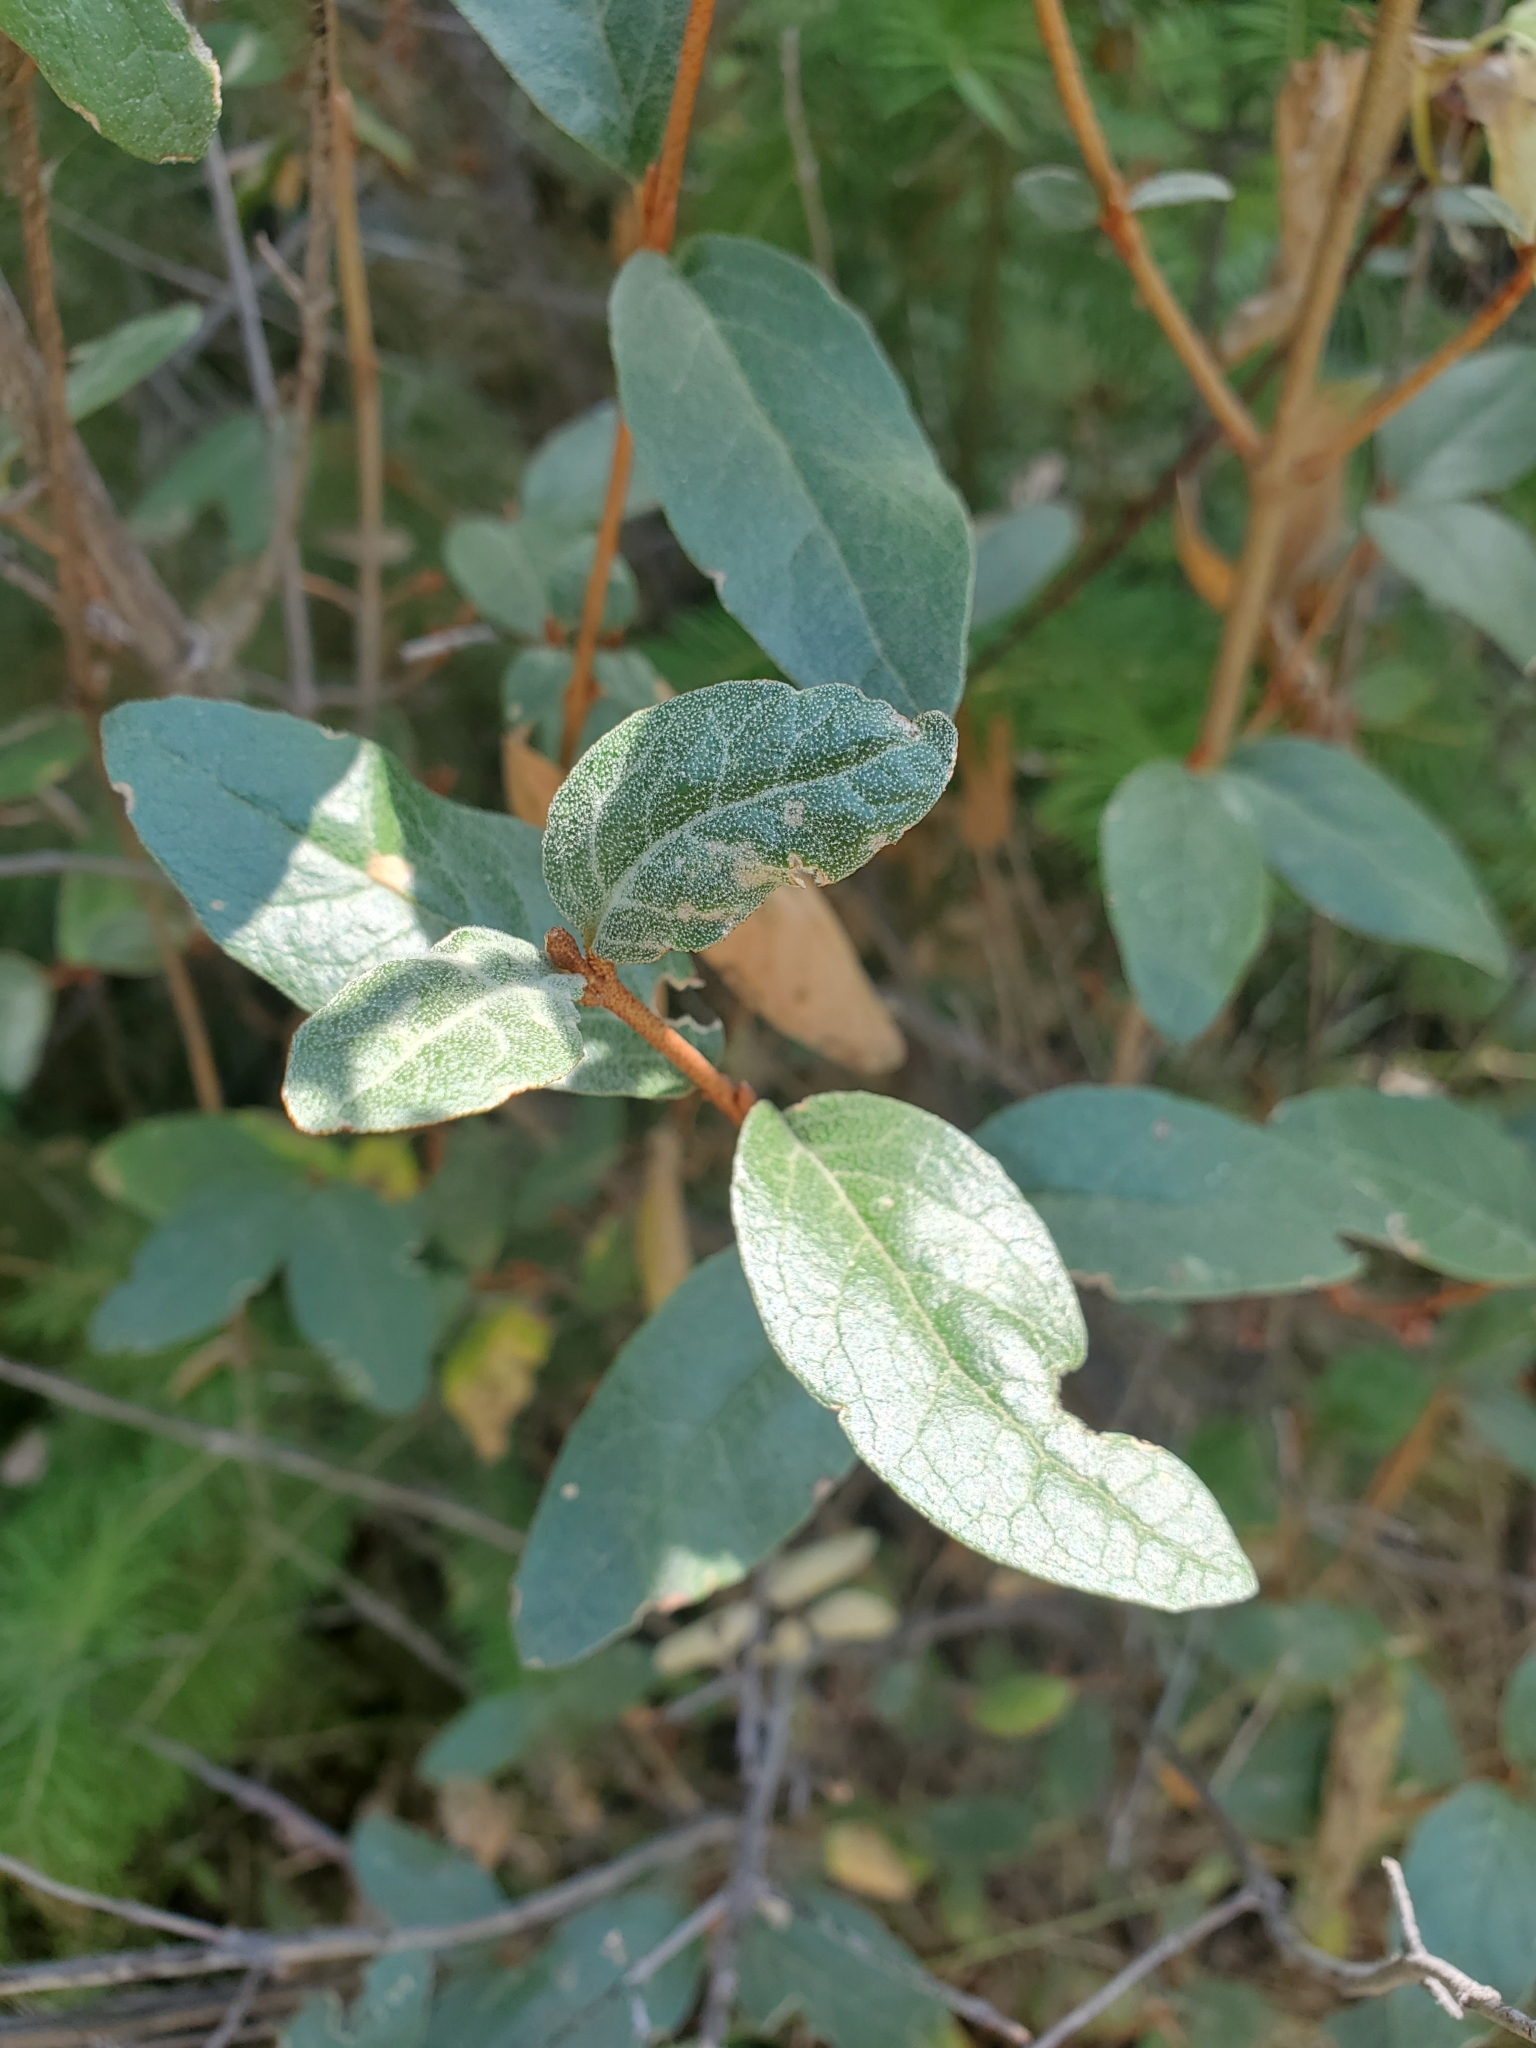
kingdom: Plantae
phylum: Tracheophyta
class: Magnoliopsida
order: Rosales
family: Elaeagnaceae
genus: Shepherdia
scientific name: Shepherdia canadensis
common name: Soapberry
